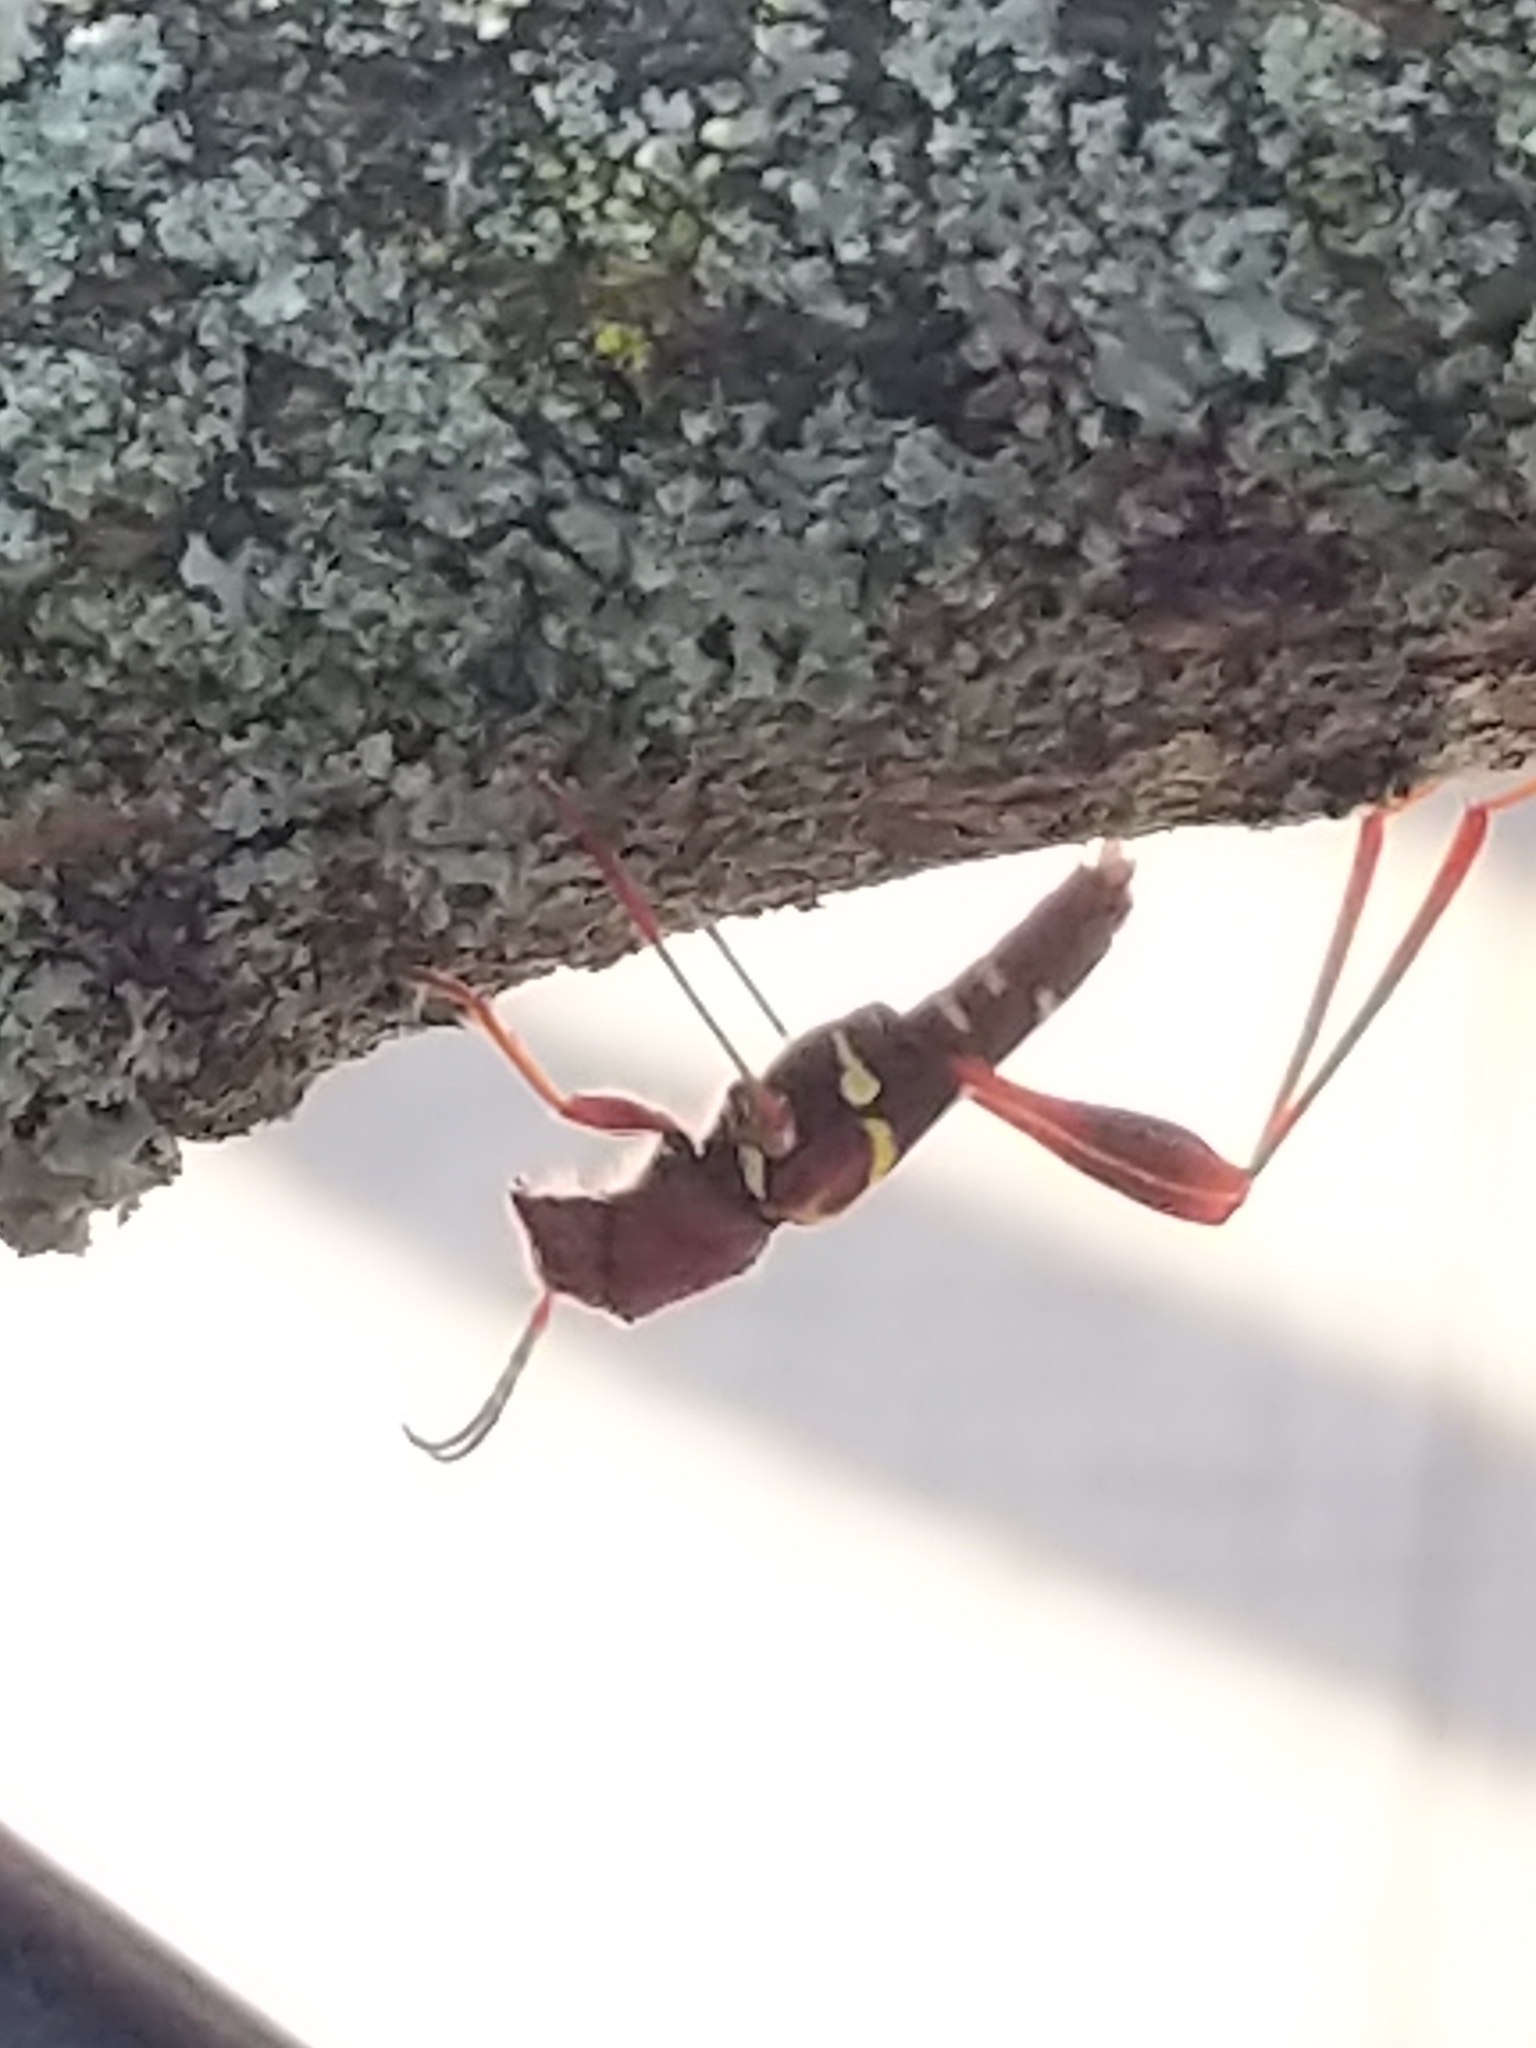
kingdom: Animalia
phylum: Arthropoda
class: Insecta
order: Coleoptera
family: Cerambycidae
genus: Neoclytus
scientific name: Neoclytus acuminatus
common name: Read-headed ash borer
